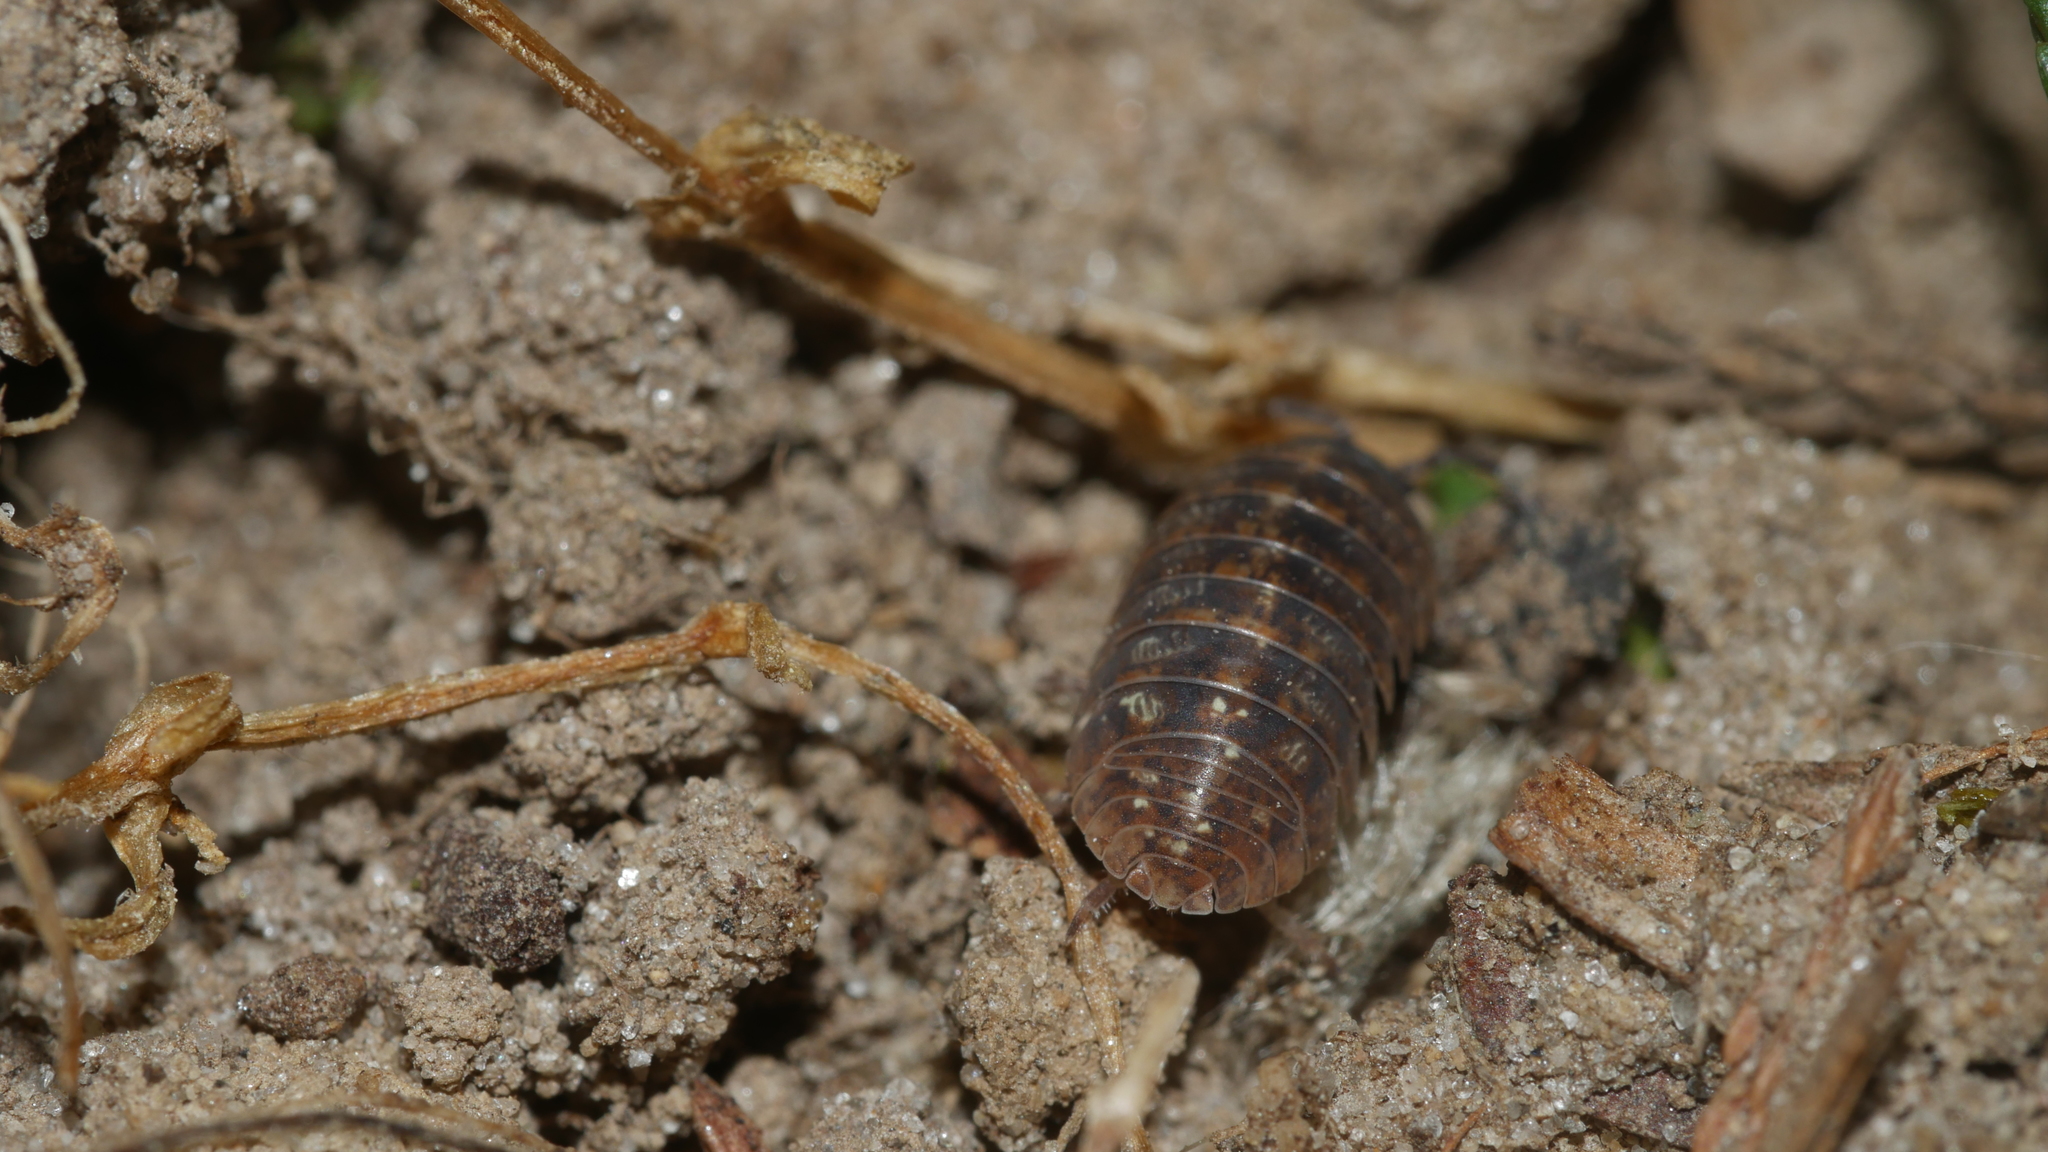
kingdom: Animalia
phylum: Arthropoda
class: Malacostraca
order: Isopoda
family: Armadillidiidae
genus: Armadillidium
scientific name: Armadillidium vulgare
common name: Common pill woodlouse
